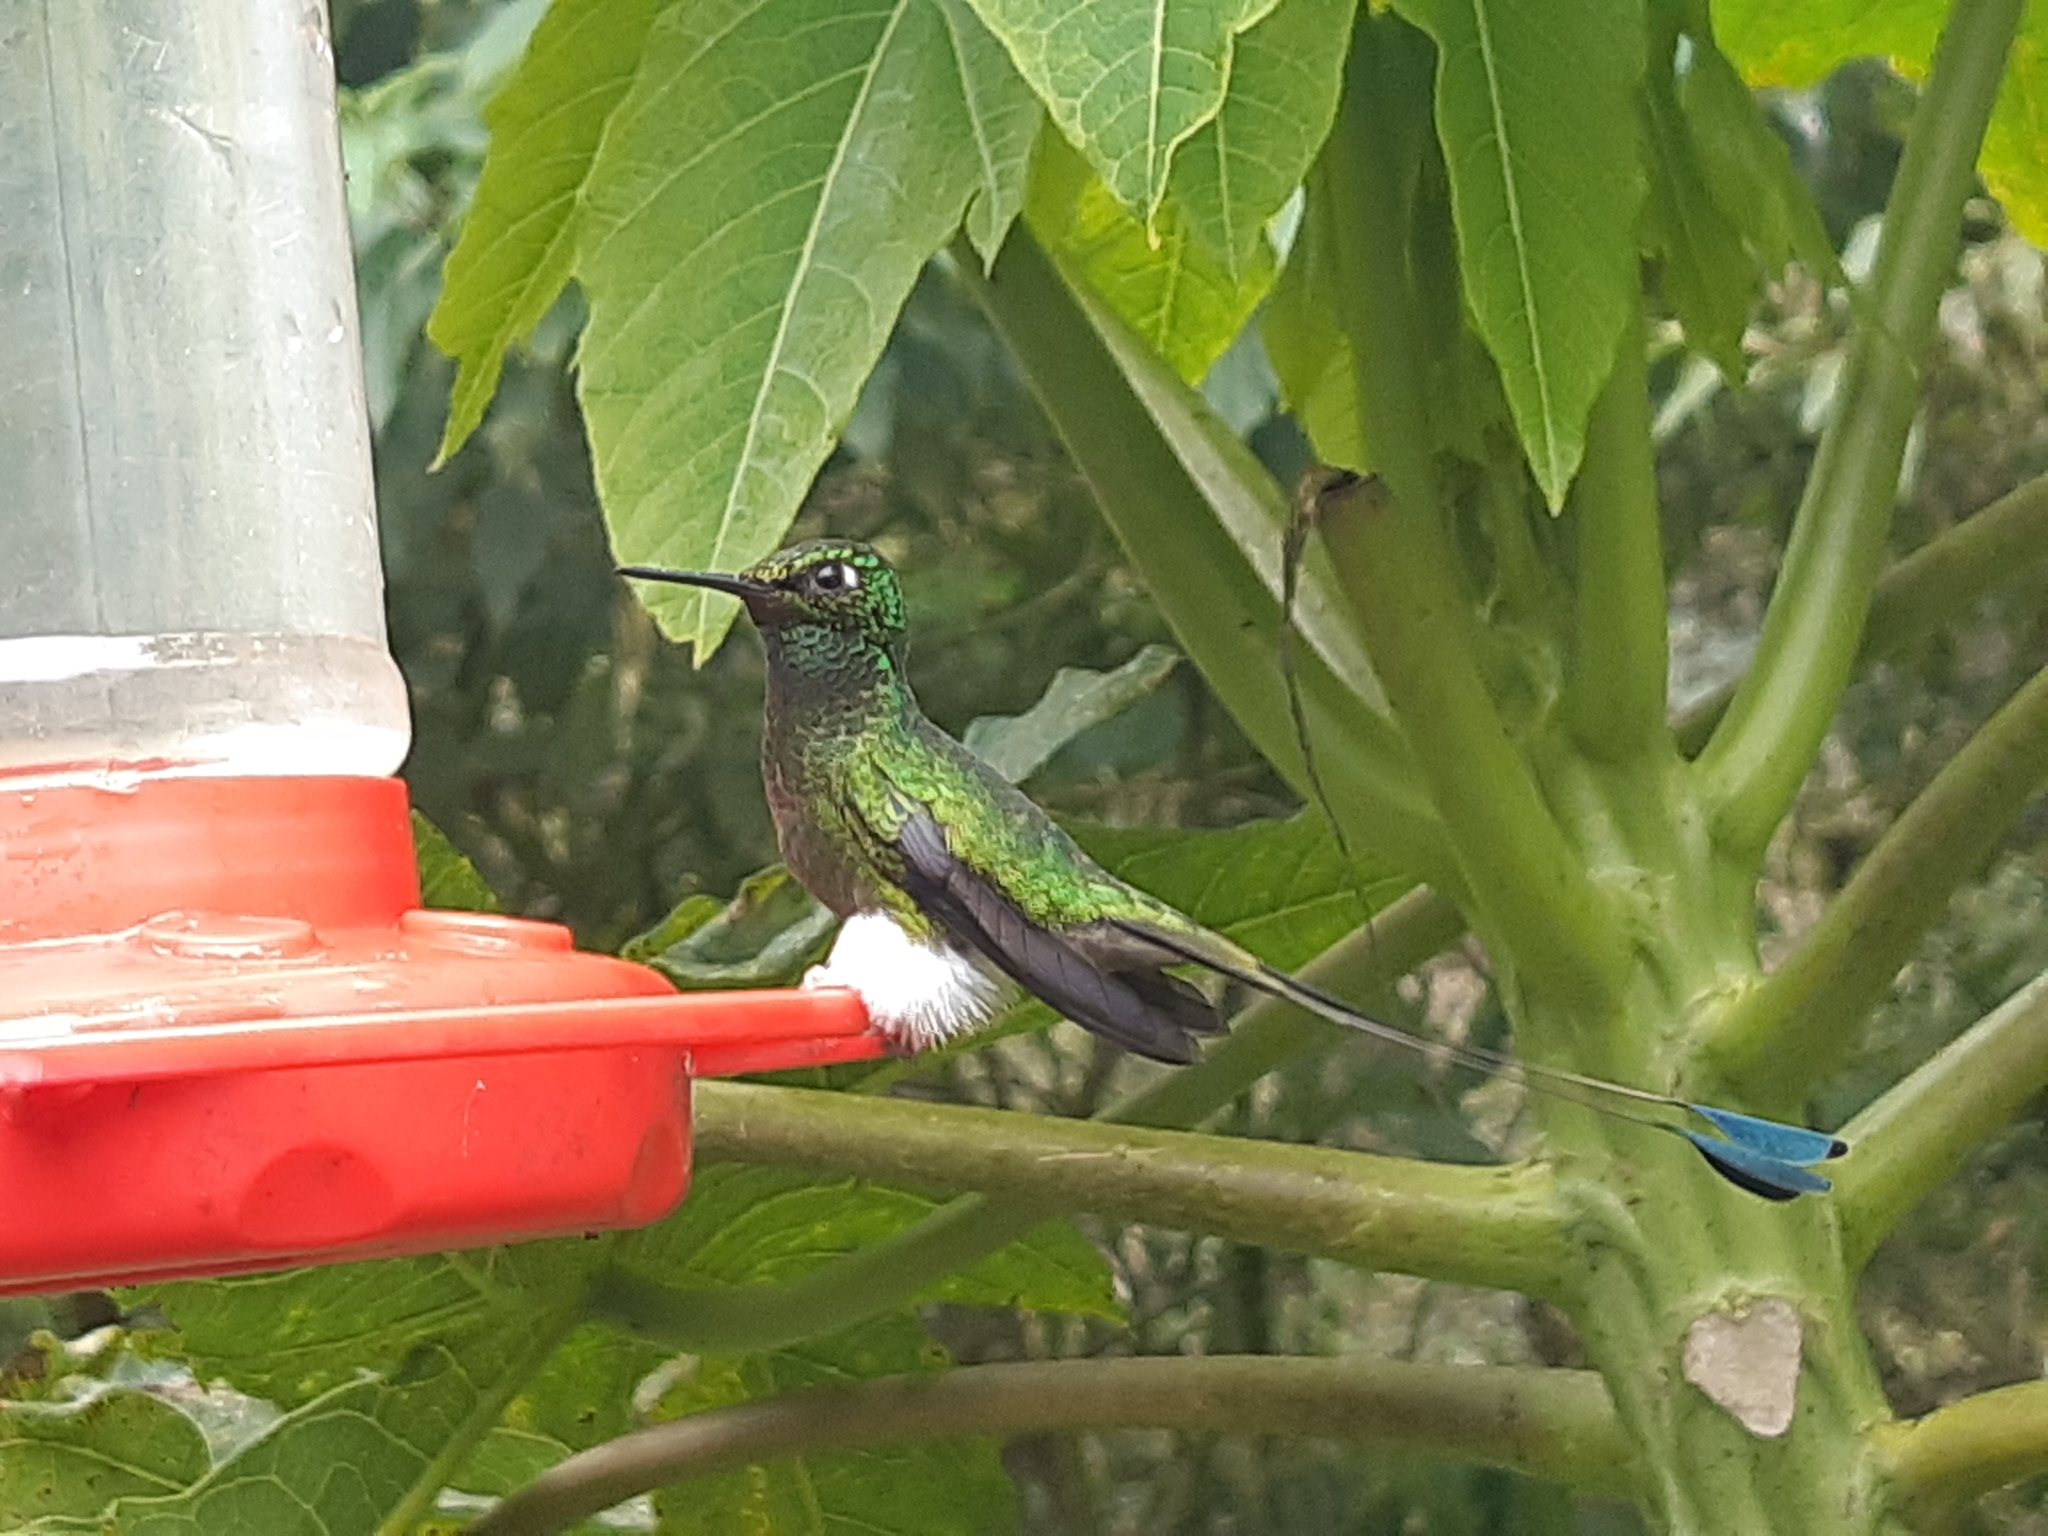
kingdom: Animalia
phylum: Chordata
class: Aves
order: Apodiformes
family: Trochilidae
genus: Ocreatus
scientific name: Ocreatus underwoodii
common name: Booted racket-tail
